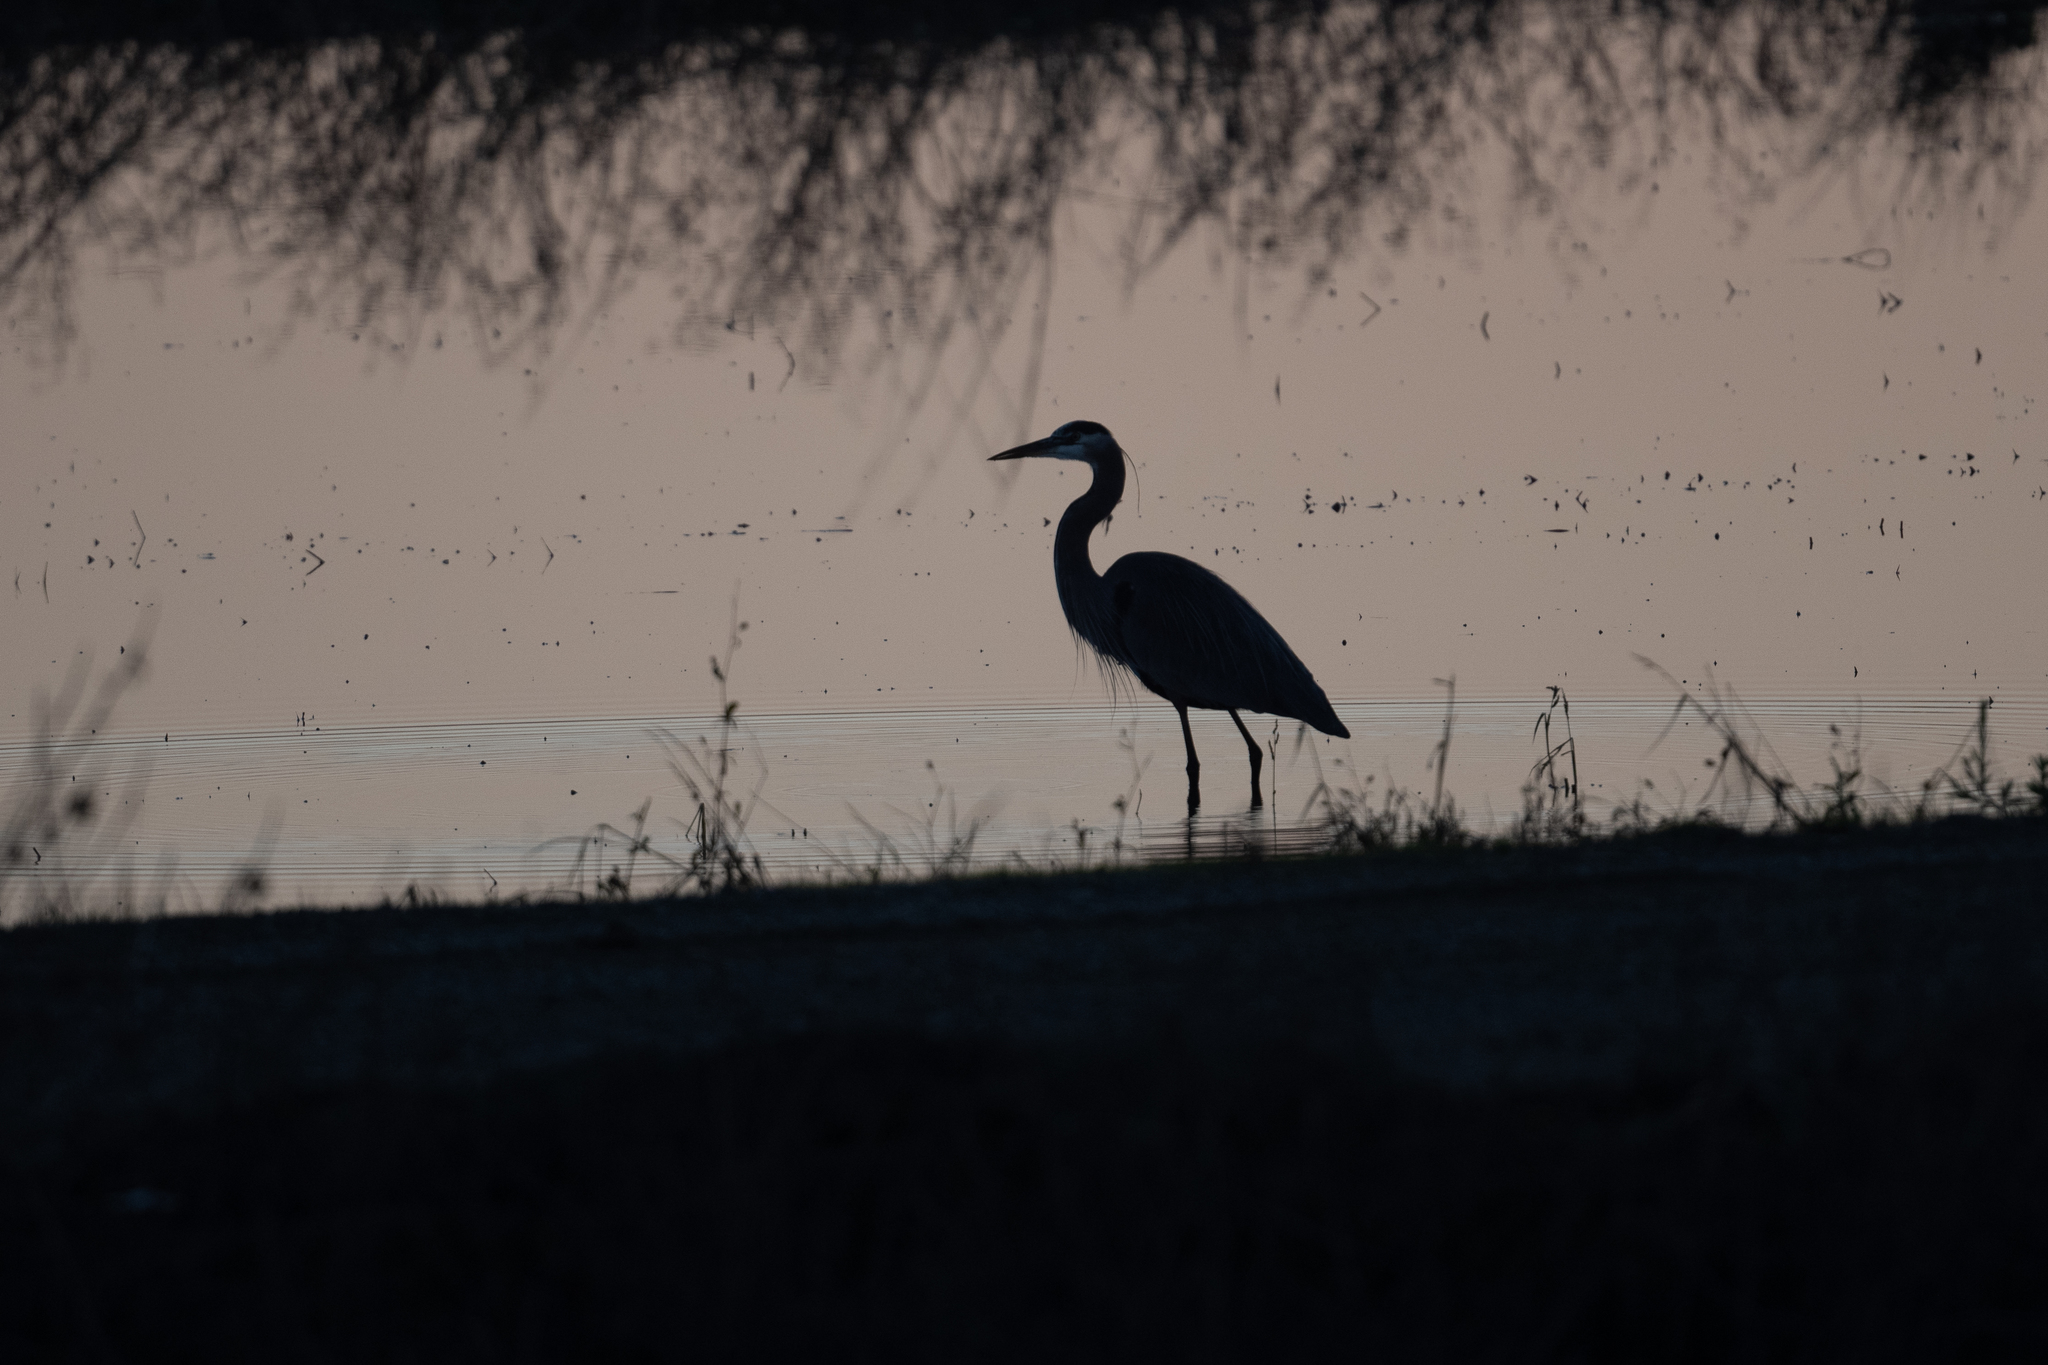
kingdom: Animalia
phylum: Chordata
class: Aves
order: Pelecaniformes
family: Ardeidae
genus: Ardea
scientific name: Ardea herodias
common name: Great blue heron
